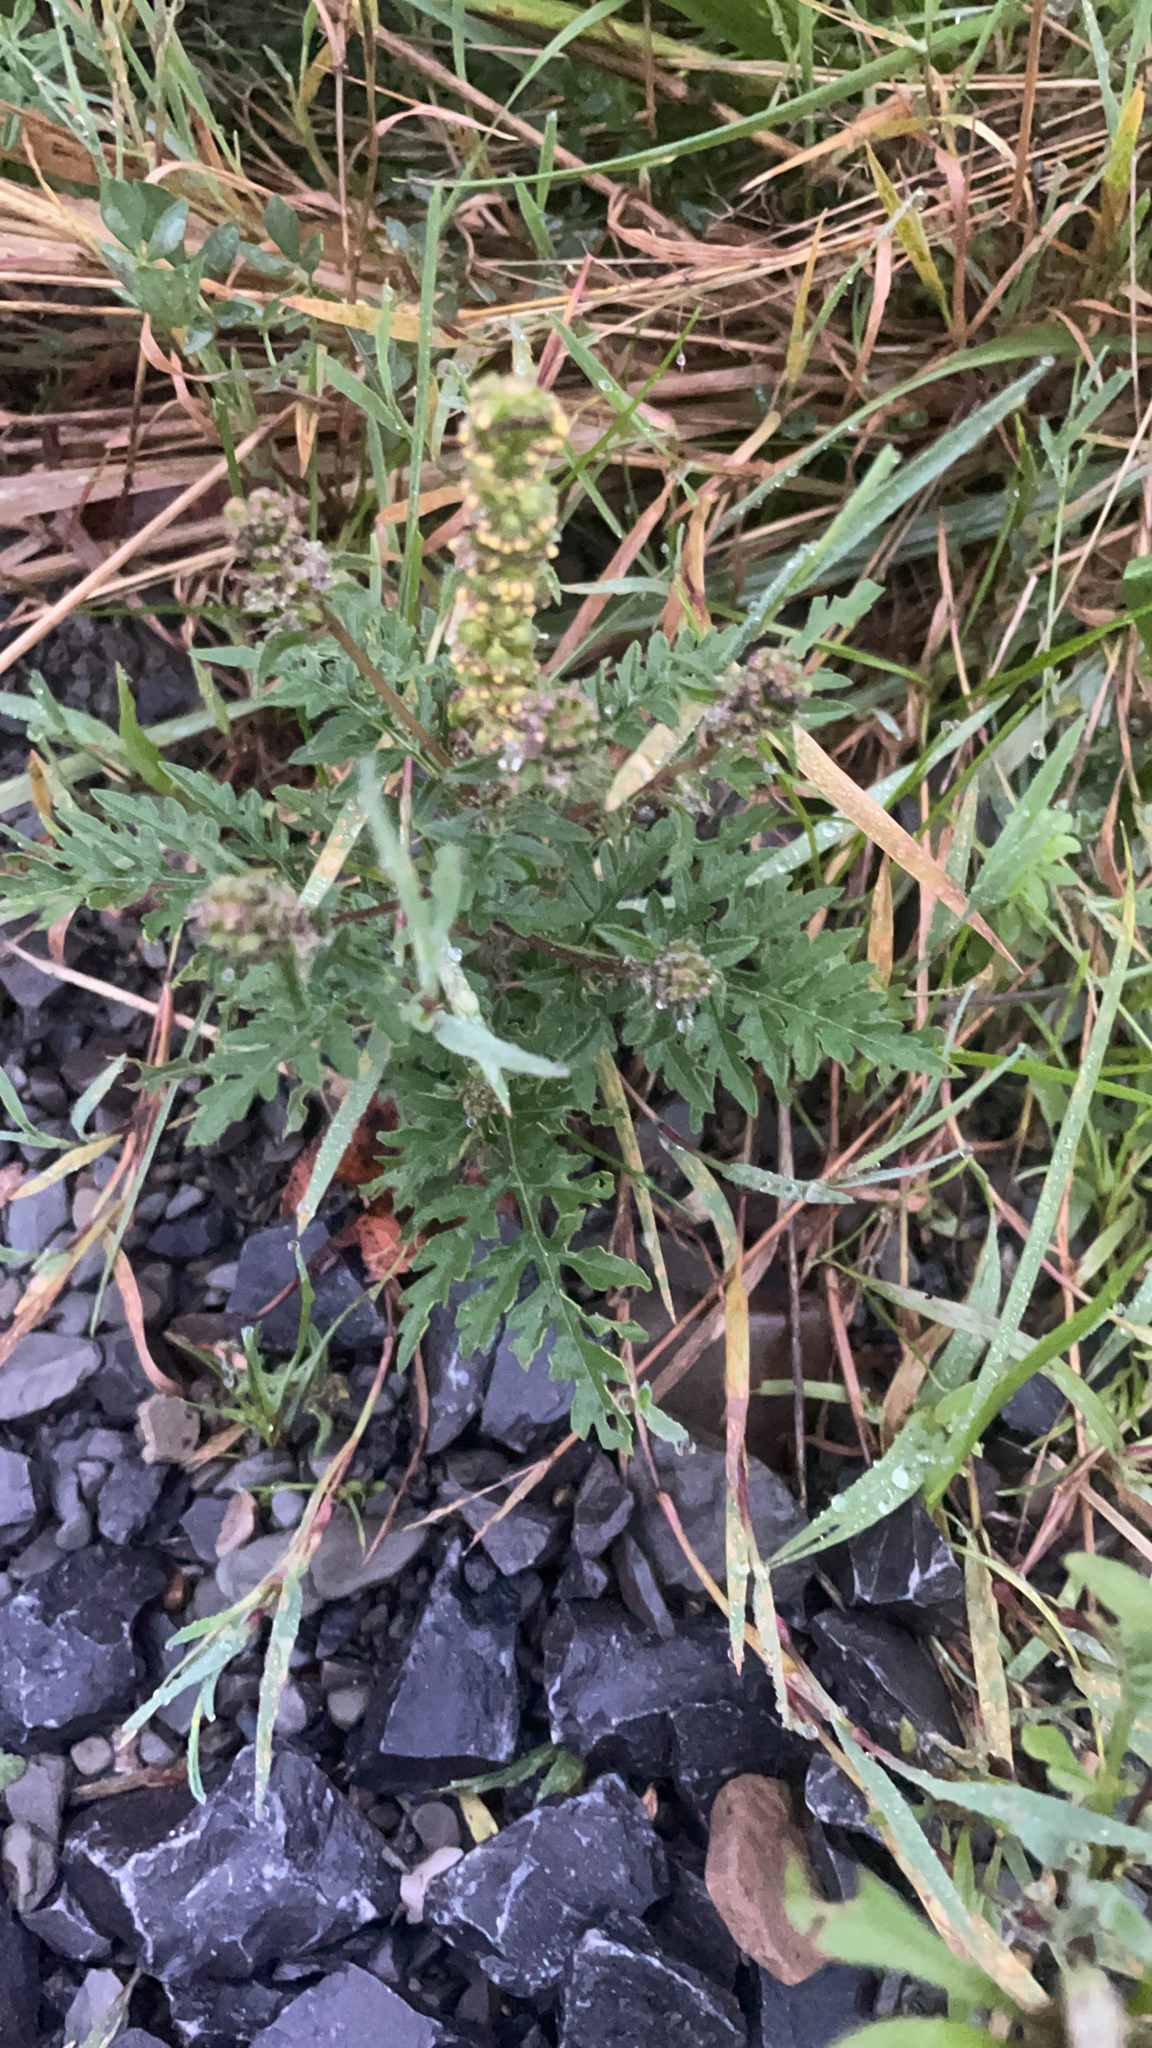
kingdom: Plantae
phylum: Tracheophyta
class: Magnoliopsida
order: Asterales
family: Asteraceae
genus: Ambrosia
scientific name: Ambrosia artemisiifolia
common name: Annual ragweed
